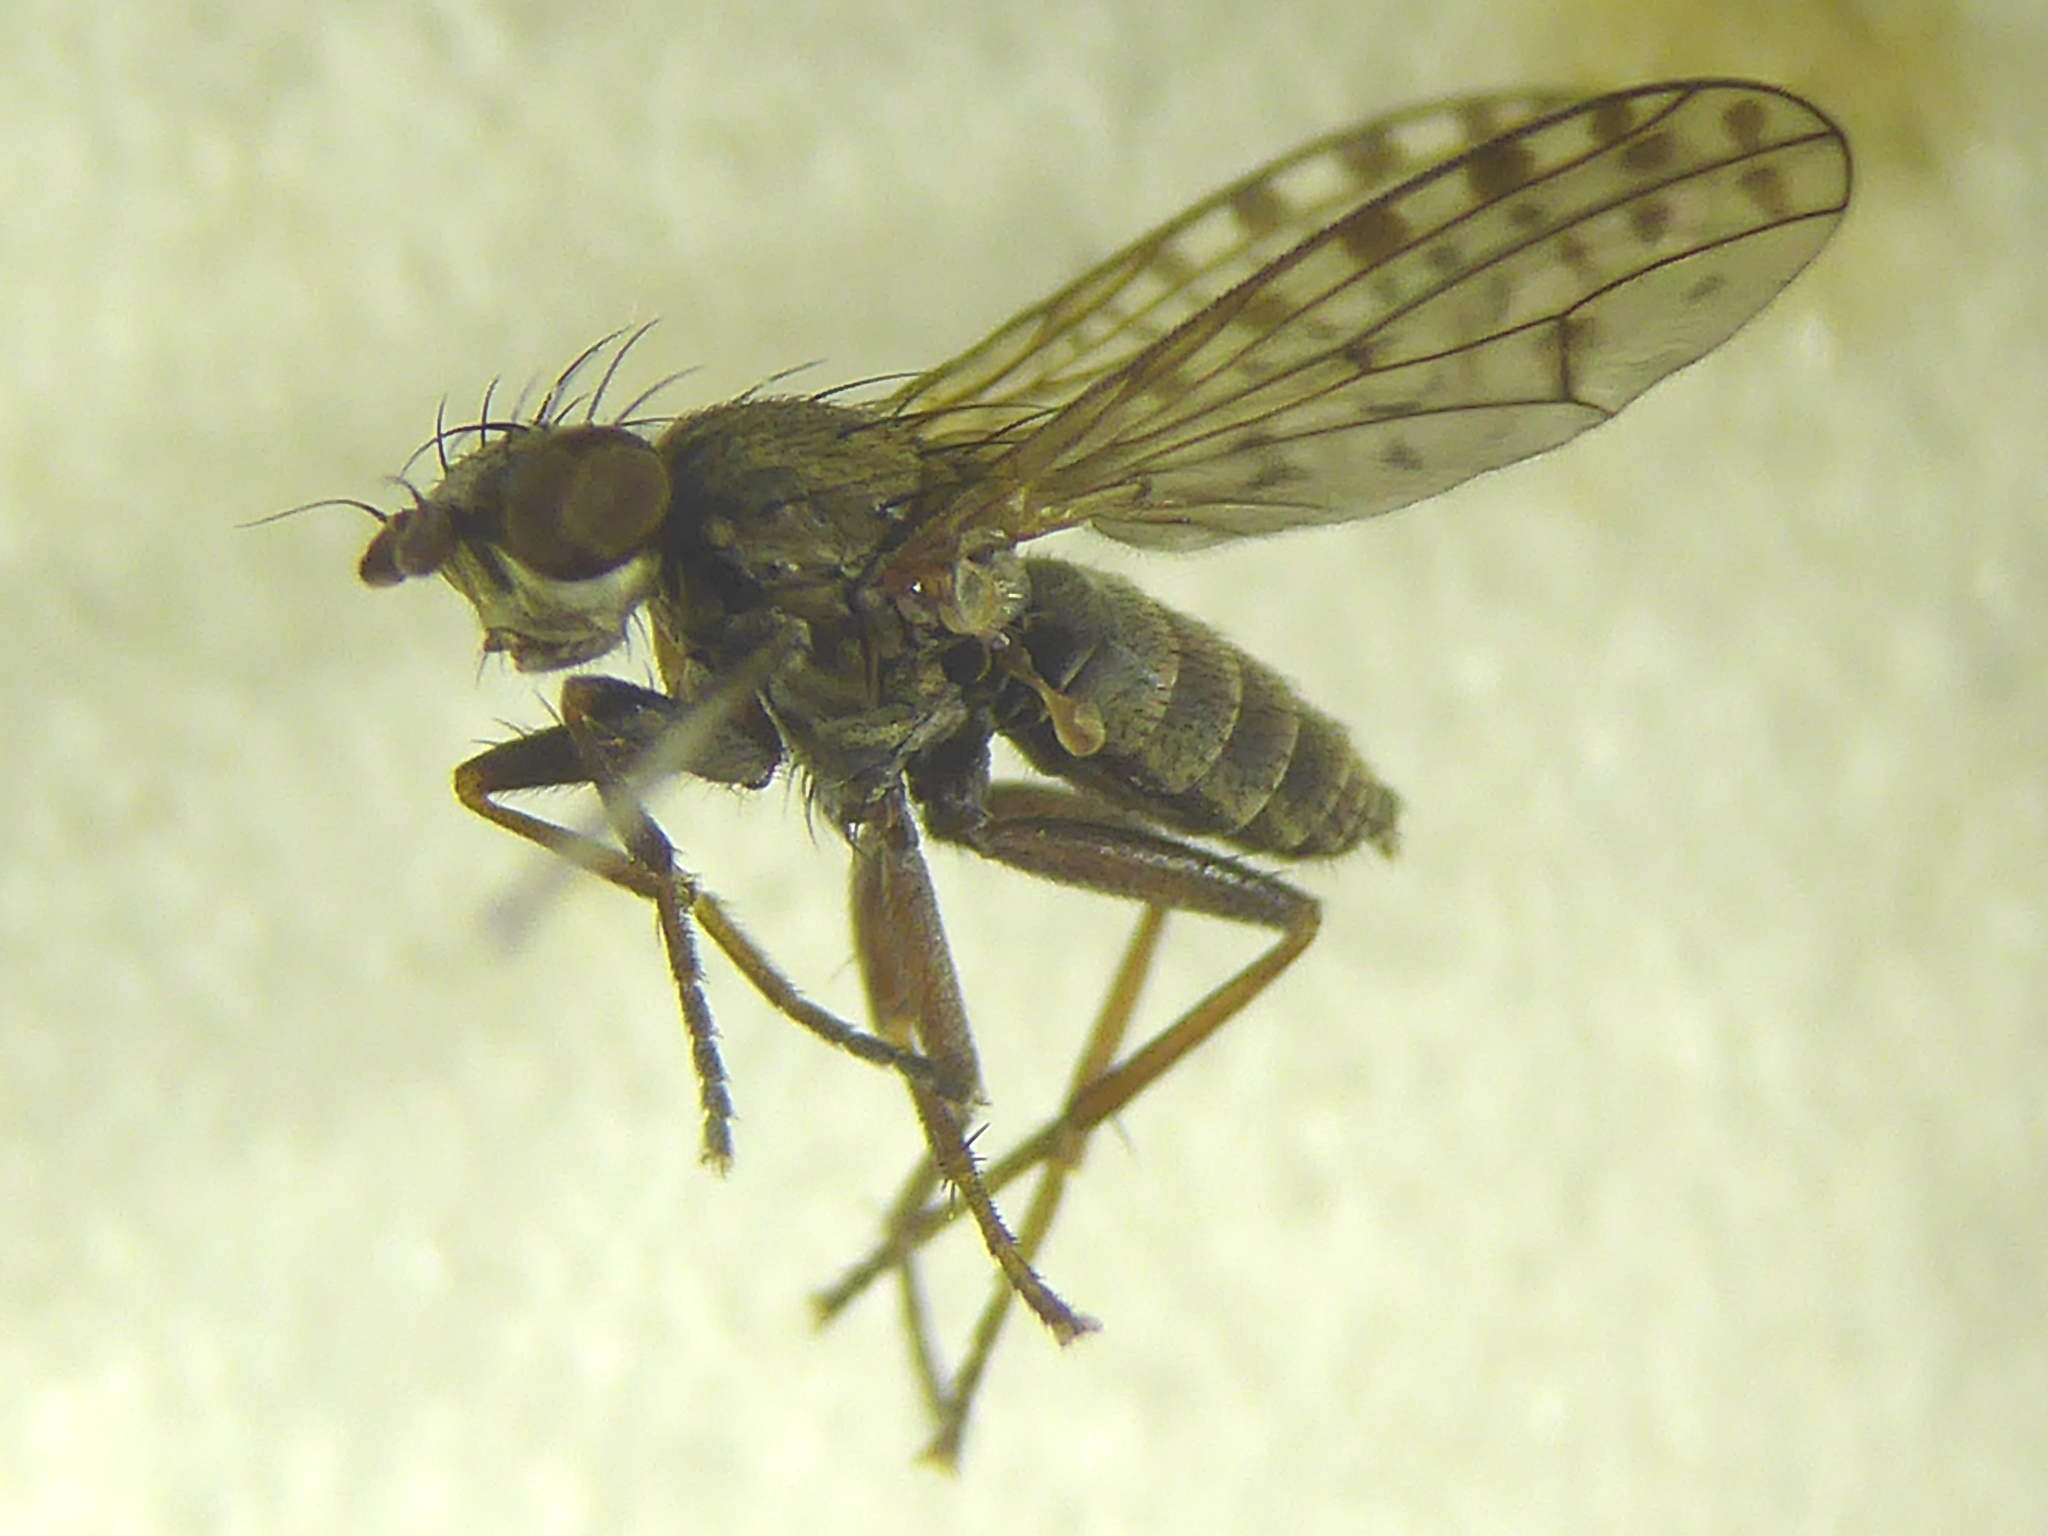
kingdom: Animalia
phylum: Arthropoda
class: Insecta
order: Diptera
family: Sciomyzidae
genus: Pherbellia
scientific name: Pherbellia schoenherri
